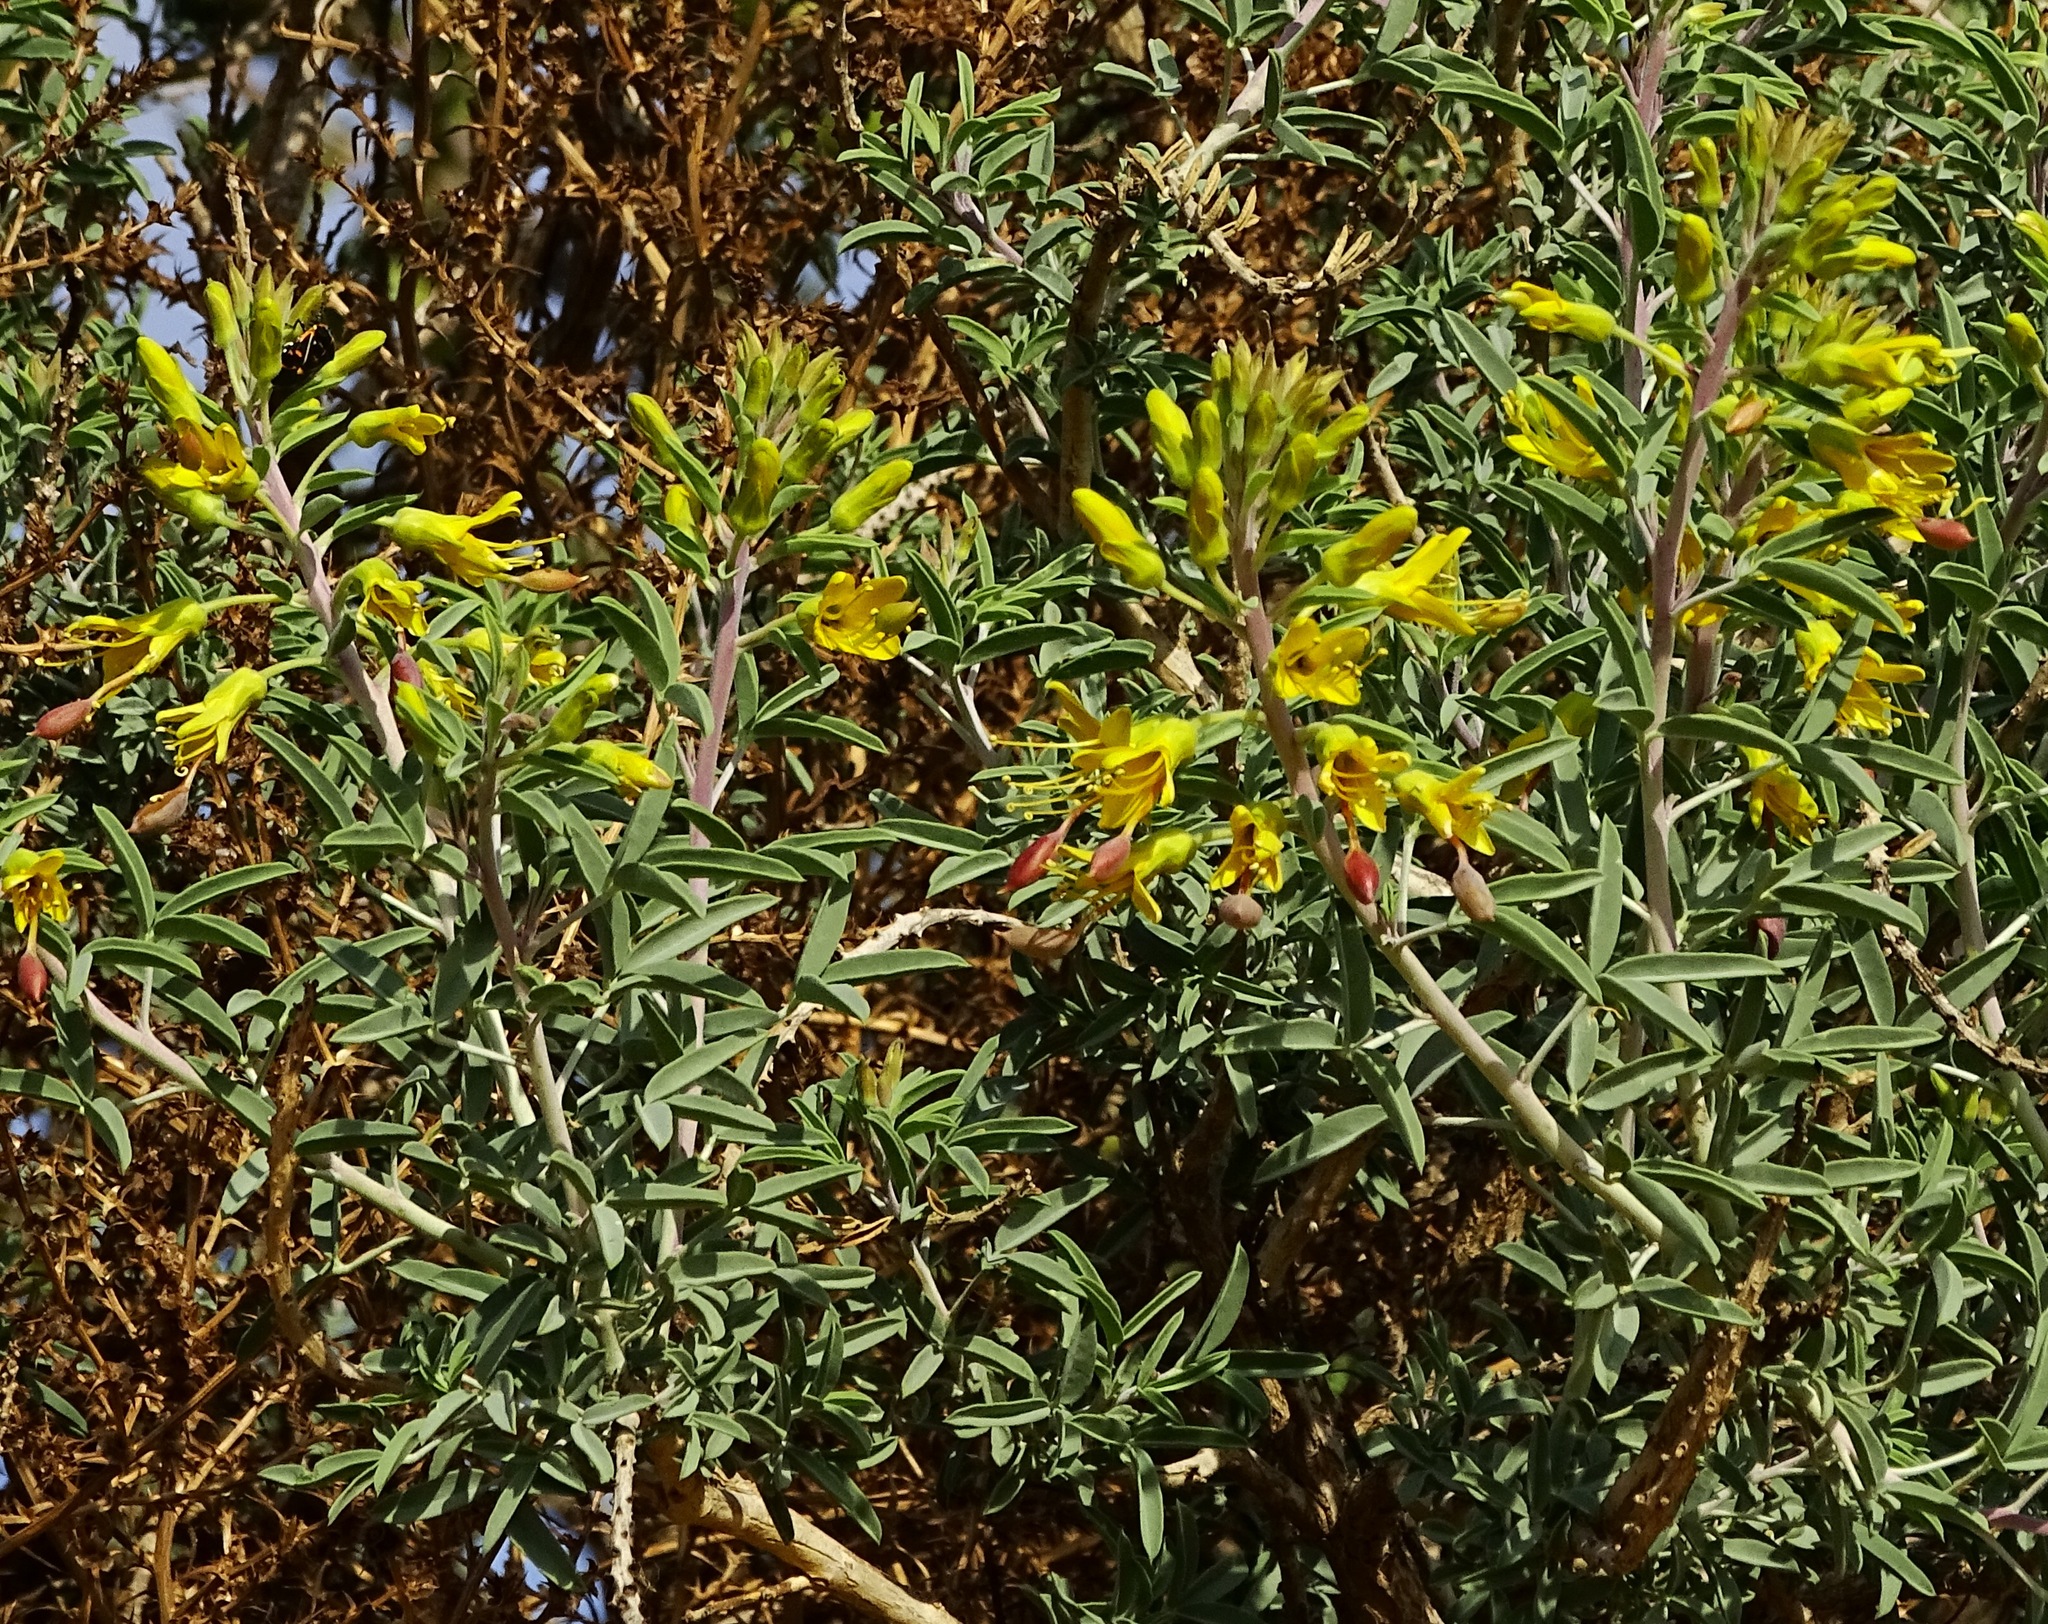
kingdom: Plantae
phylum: Tracheophyta
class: Magnoliopsida
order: Brassicales
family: Cleomaceae
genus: Cleomella
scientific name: Cleomella arborea
